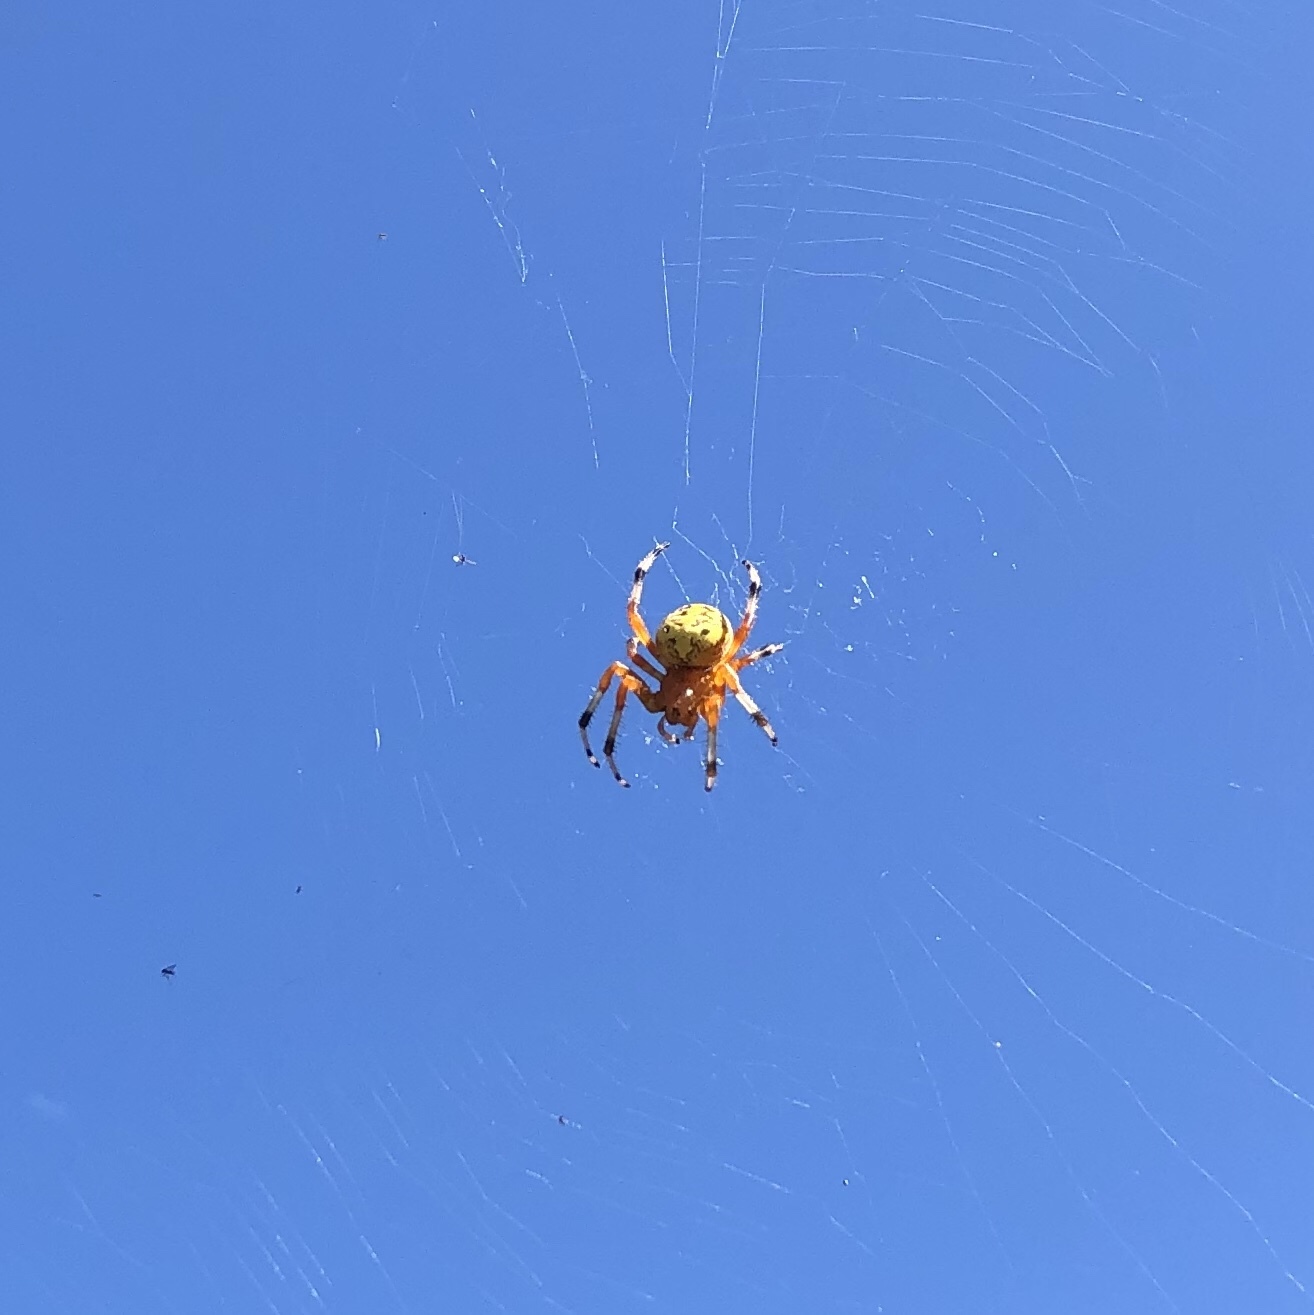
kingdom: Animalia
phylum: Arthropoda
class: Arachnida
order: Araneae
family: Araneidae
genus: Araneus
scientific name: Araneus marmoreus
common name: Marbled orbweaver
